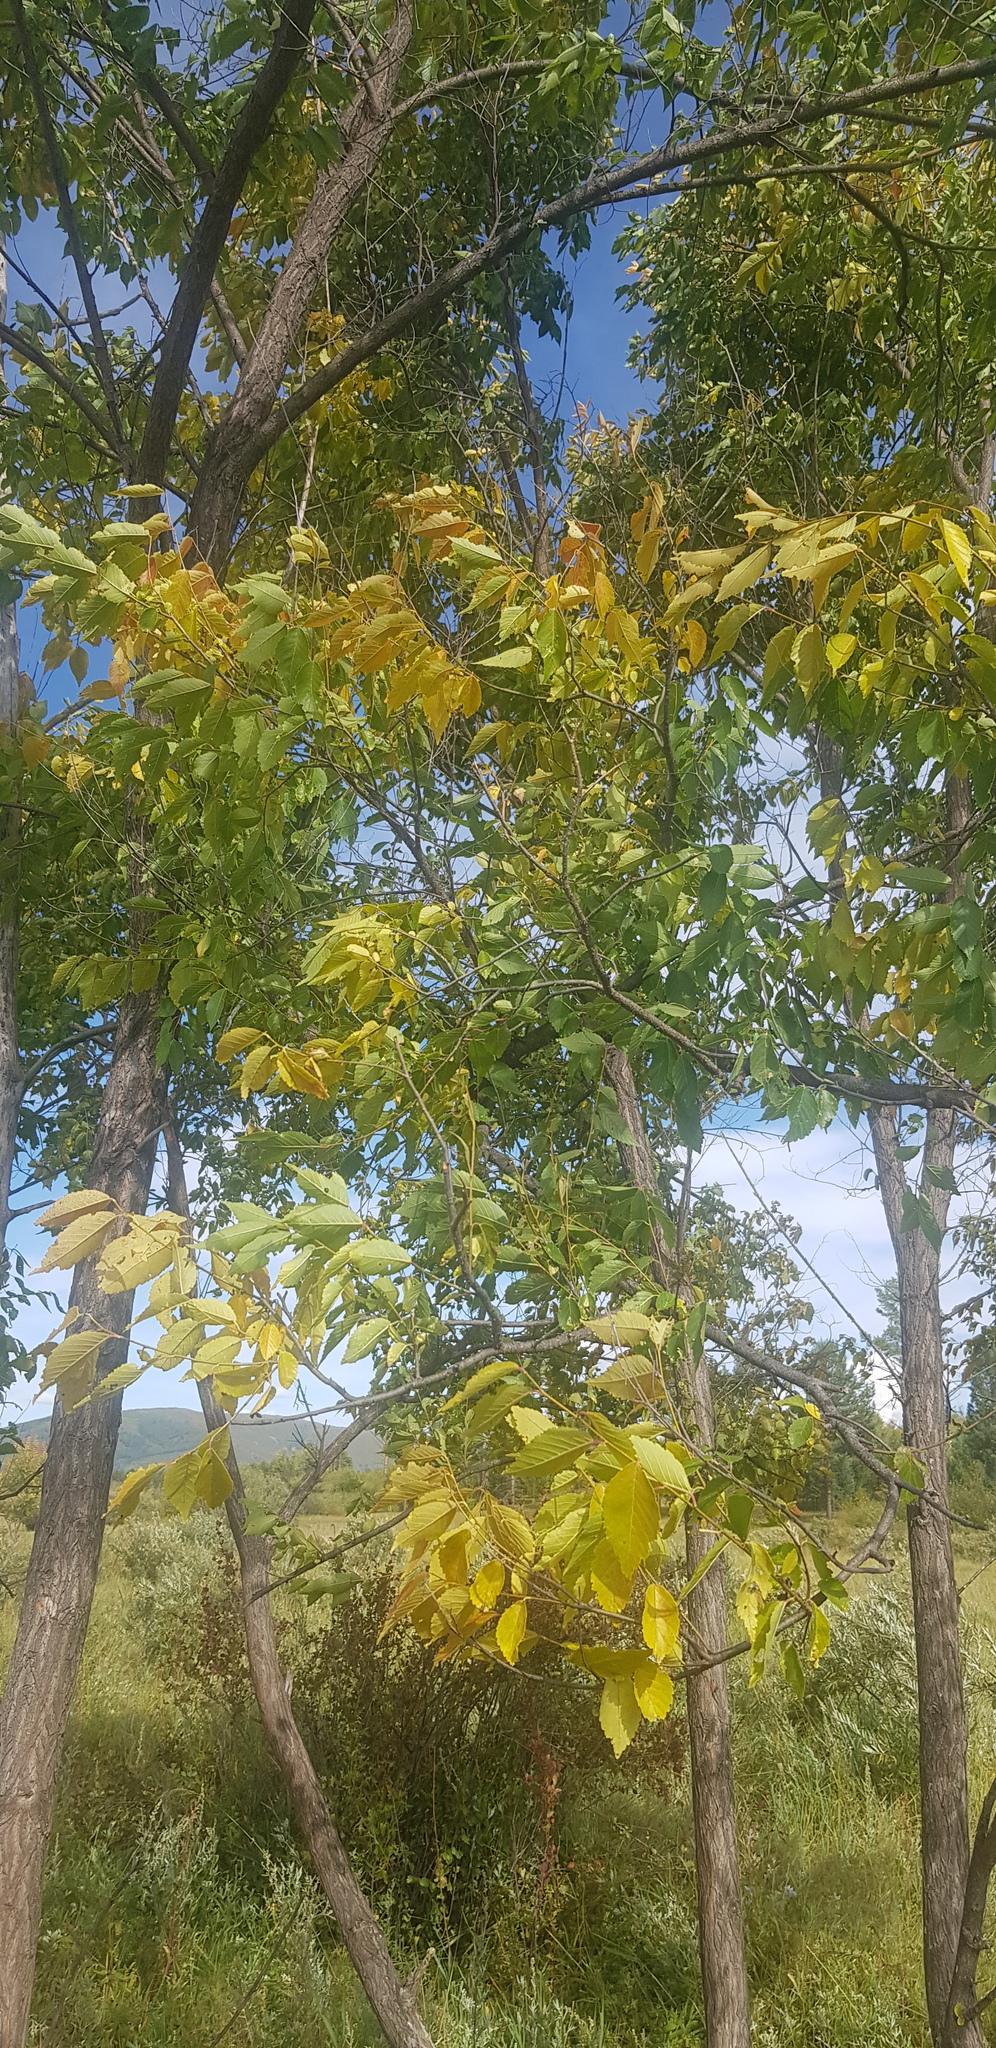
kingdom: Plantae
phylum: Tracheophyta
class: Magnoliopsida
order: Rosales
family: Ulmaceae
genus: Ulmus
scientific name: Ulmus davidiana
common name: Japanese elm
